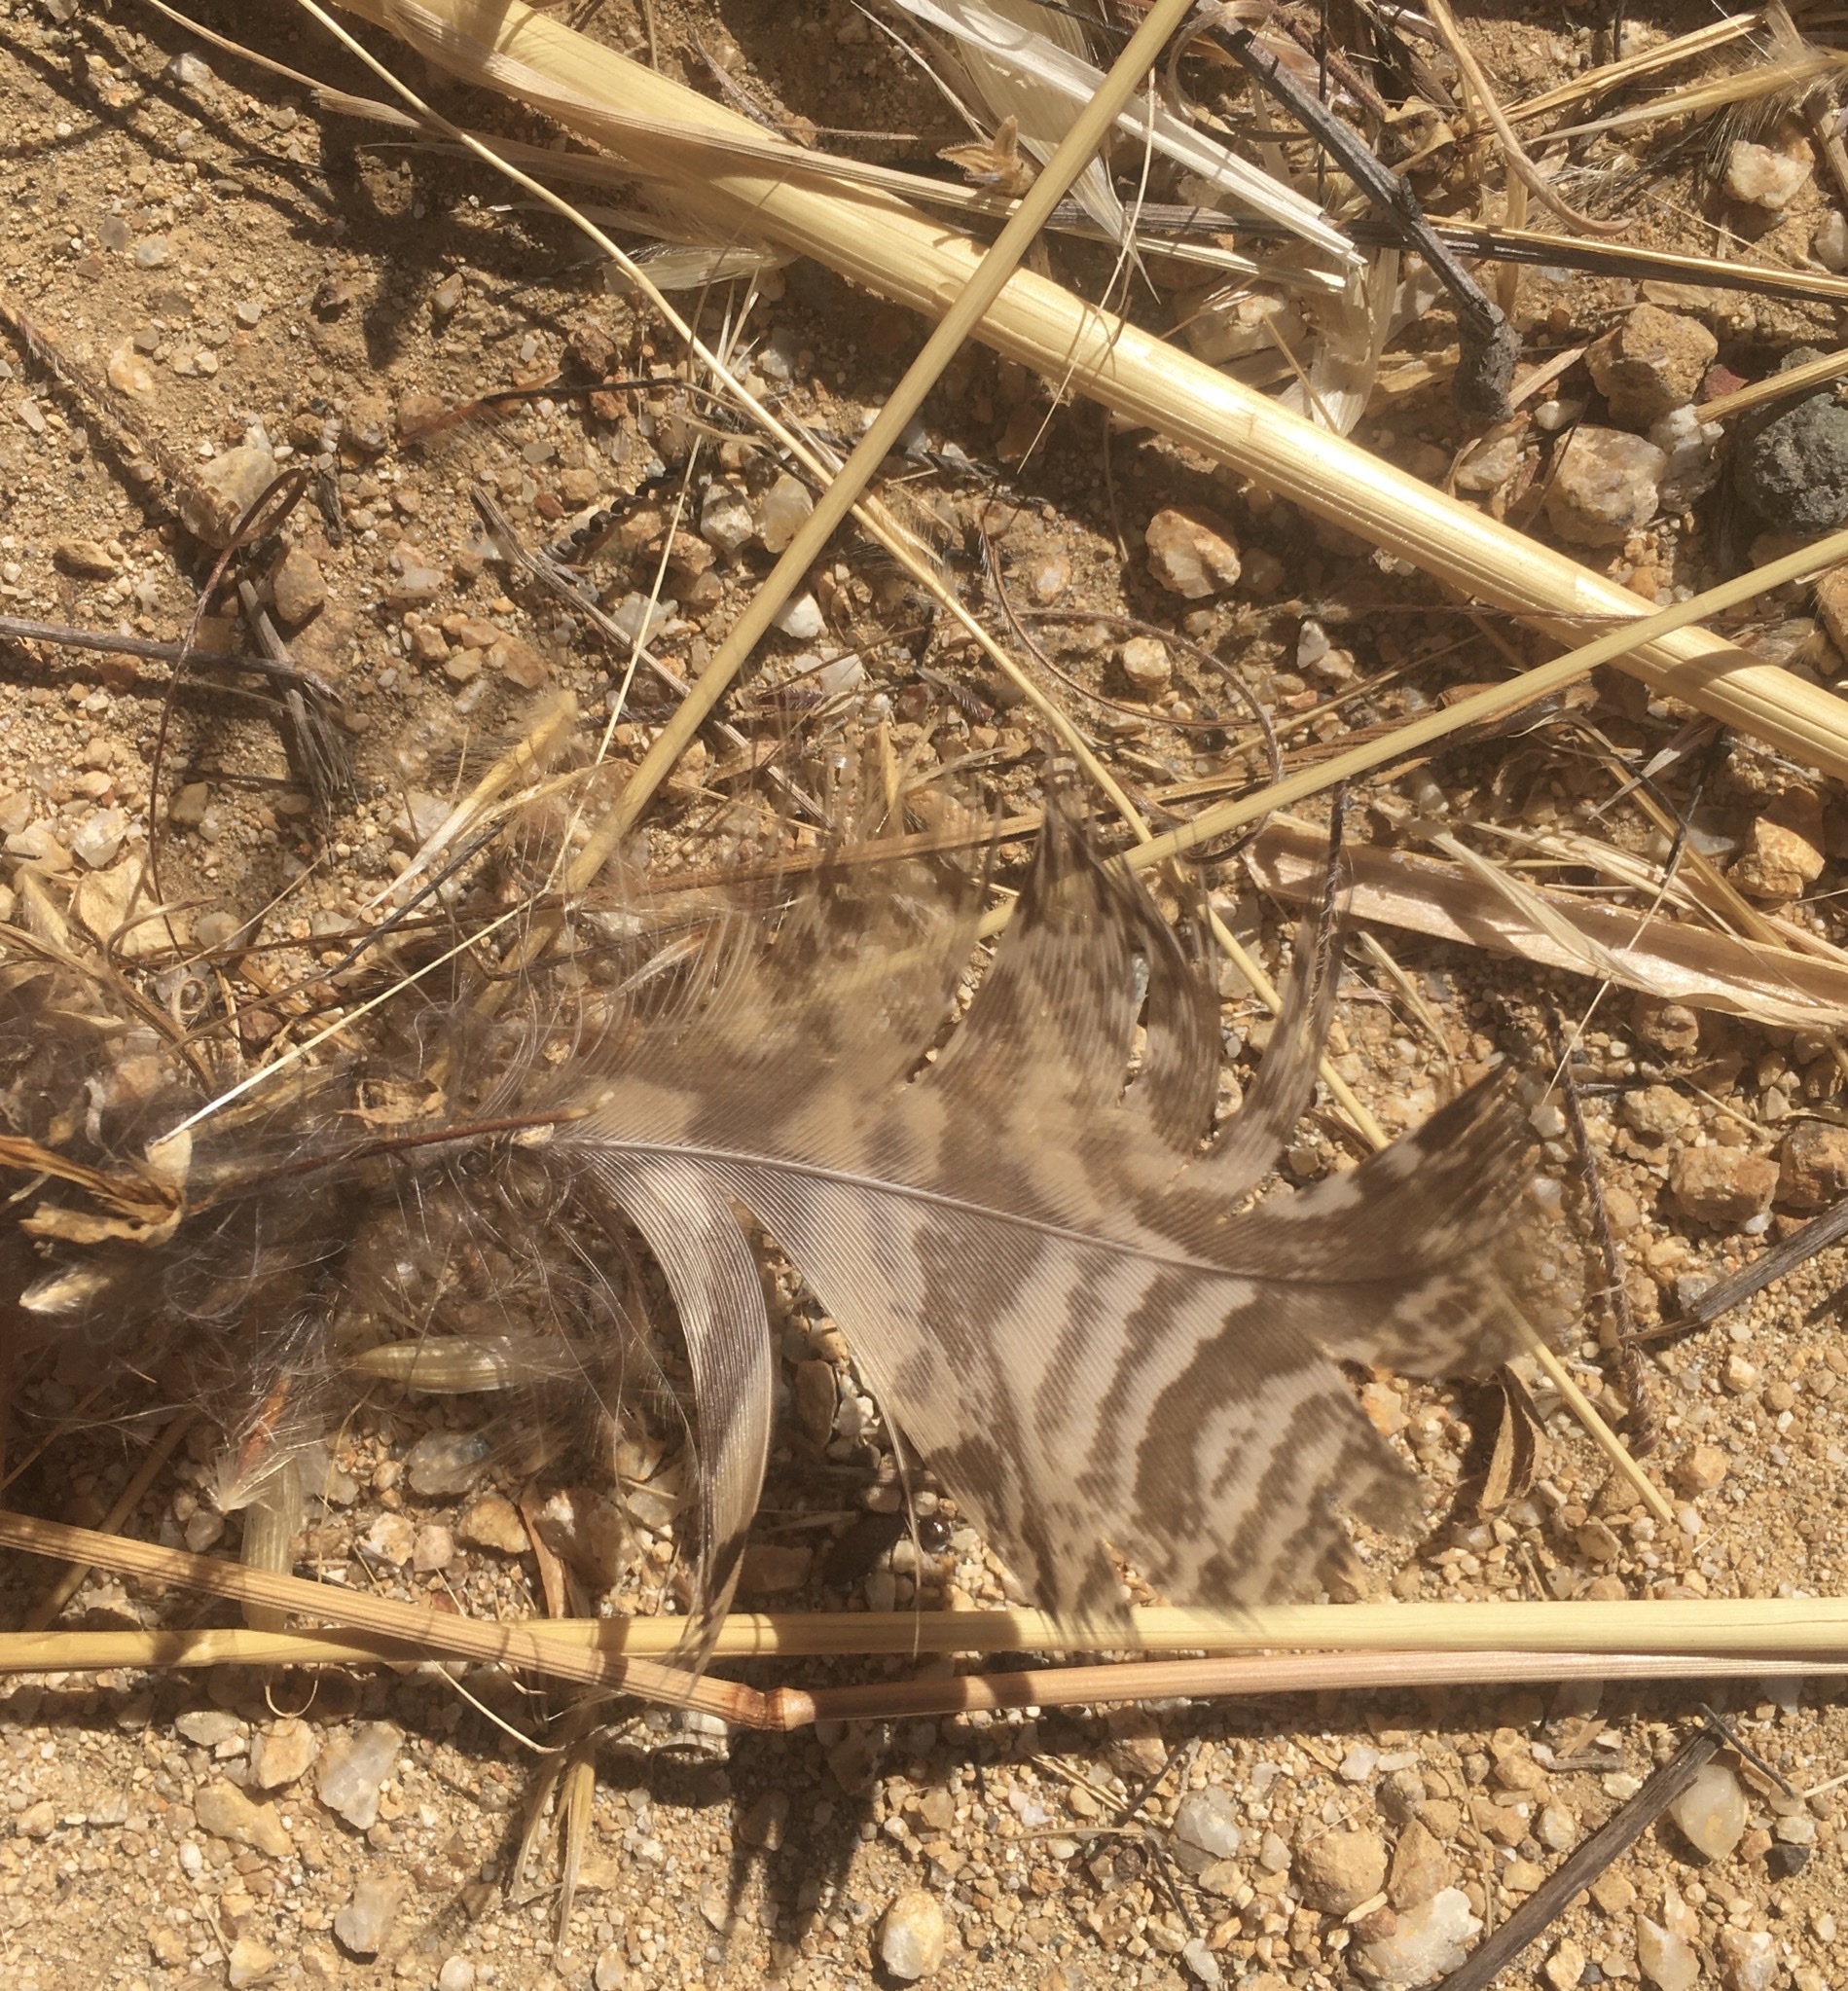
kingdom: Animalia
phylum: Chordata
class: Aves
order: Strigiformes
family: Strigidae
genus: Bubo
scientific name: Bubo virginianus
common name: Great horned owl
